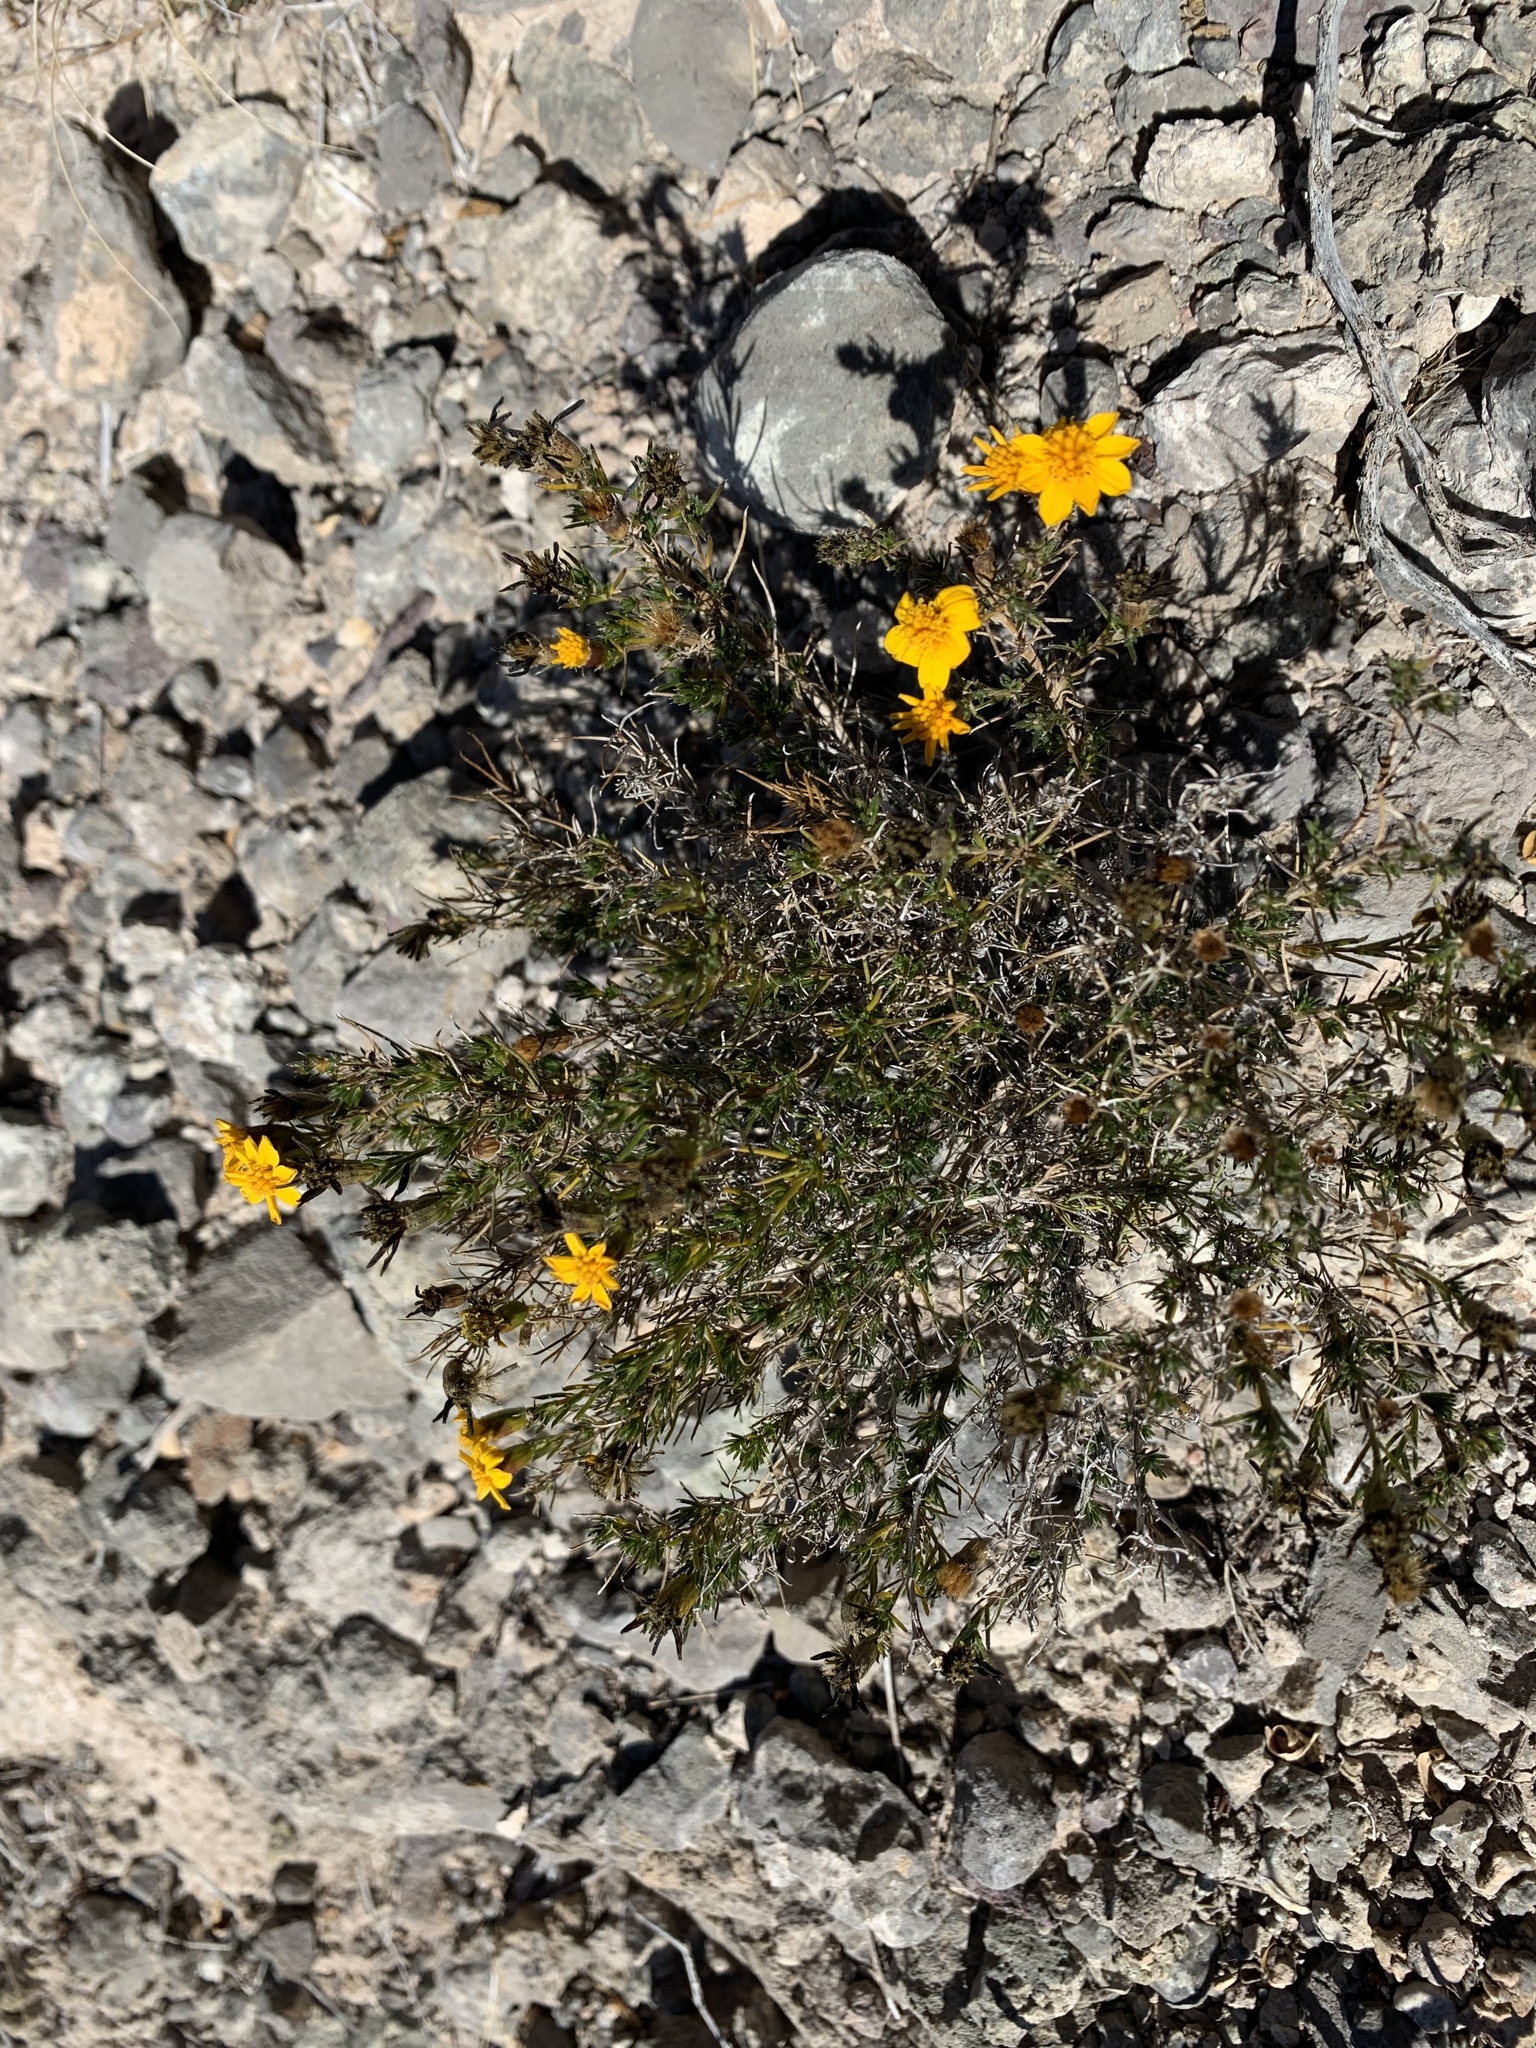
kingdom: Plantae
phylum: Tracheophyta
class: Magnoliopsida
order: Asterales
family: Asteraceae
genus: Thymophylla
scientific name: Thymophylla acerosa
